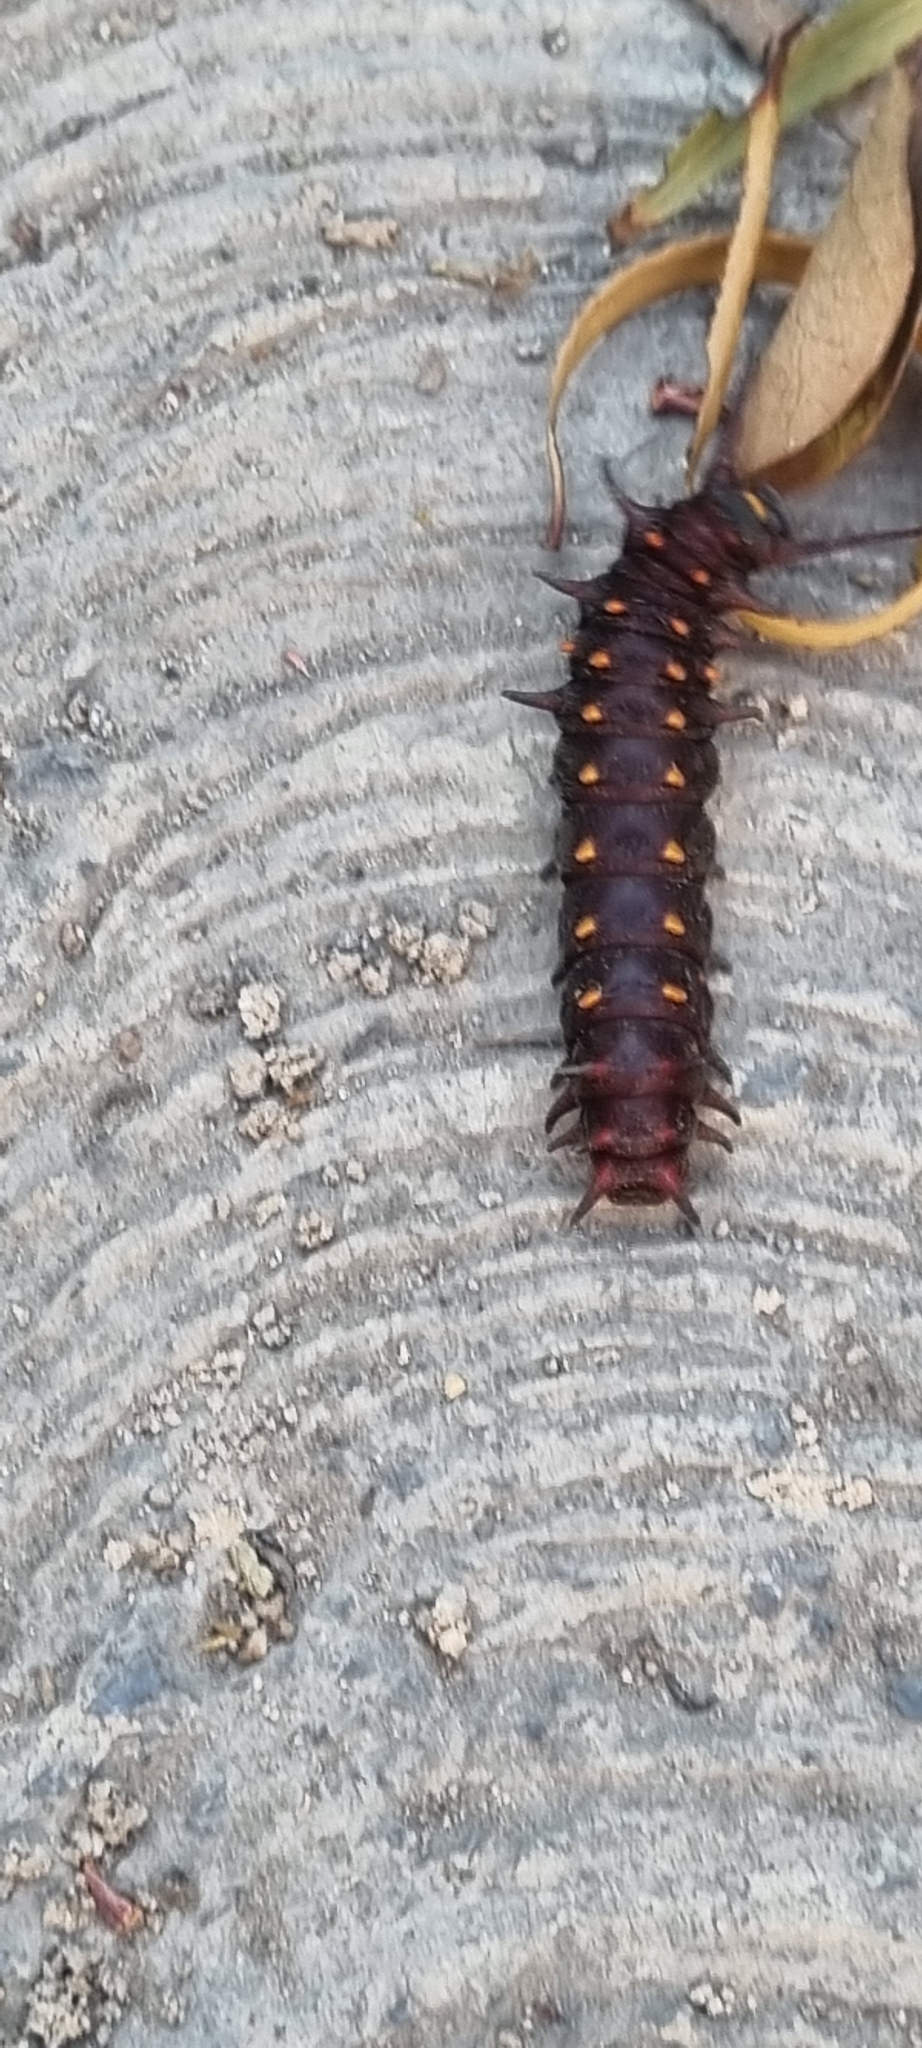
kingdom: Animalia
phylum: Arthropoda
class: Insecta
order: Lepidoptera
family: Papilionidae
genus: Battus
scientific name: Battus philenor
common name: Pipevine swallowtail
